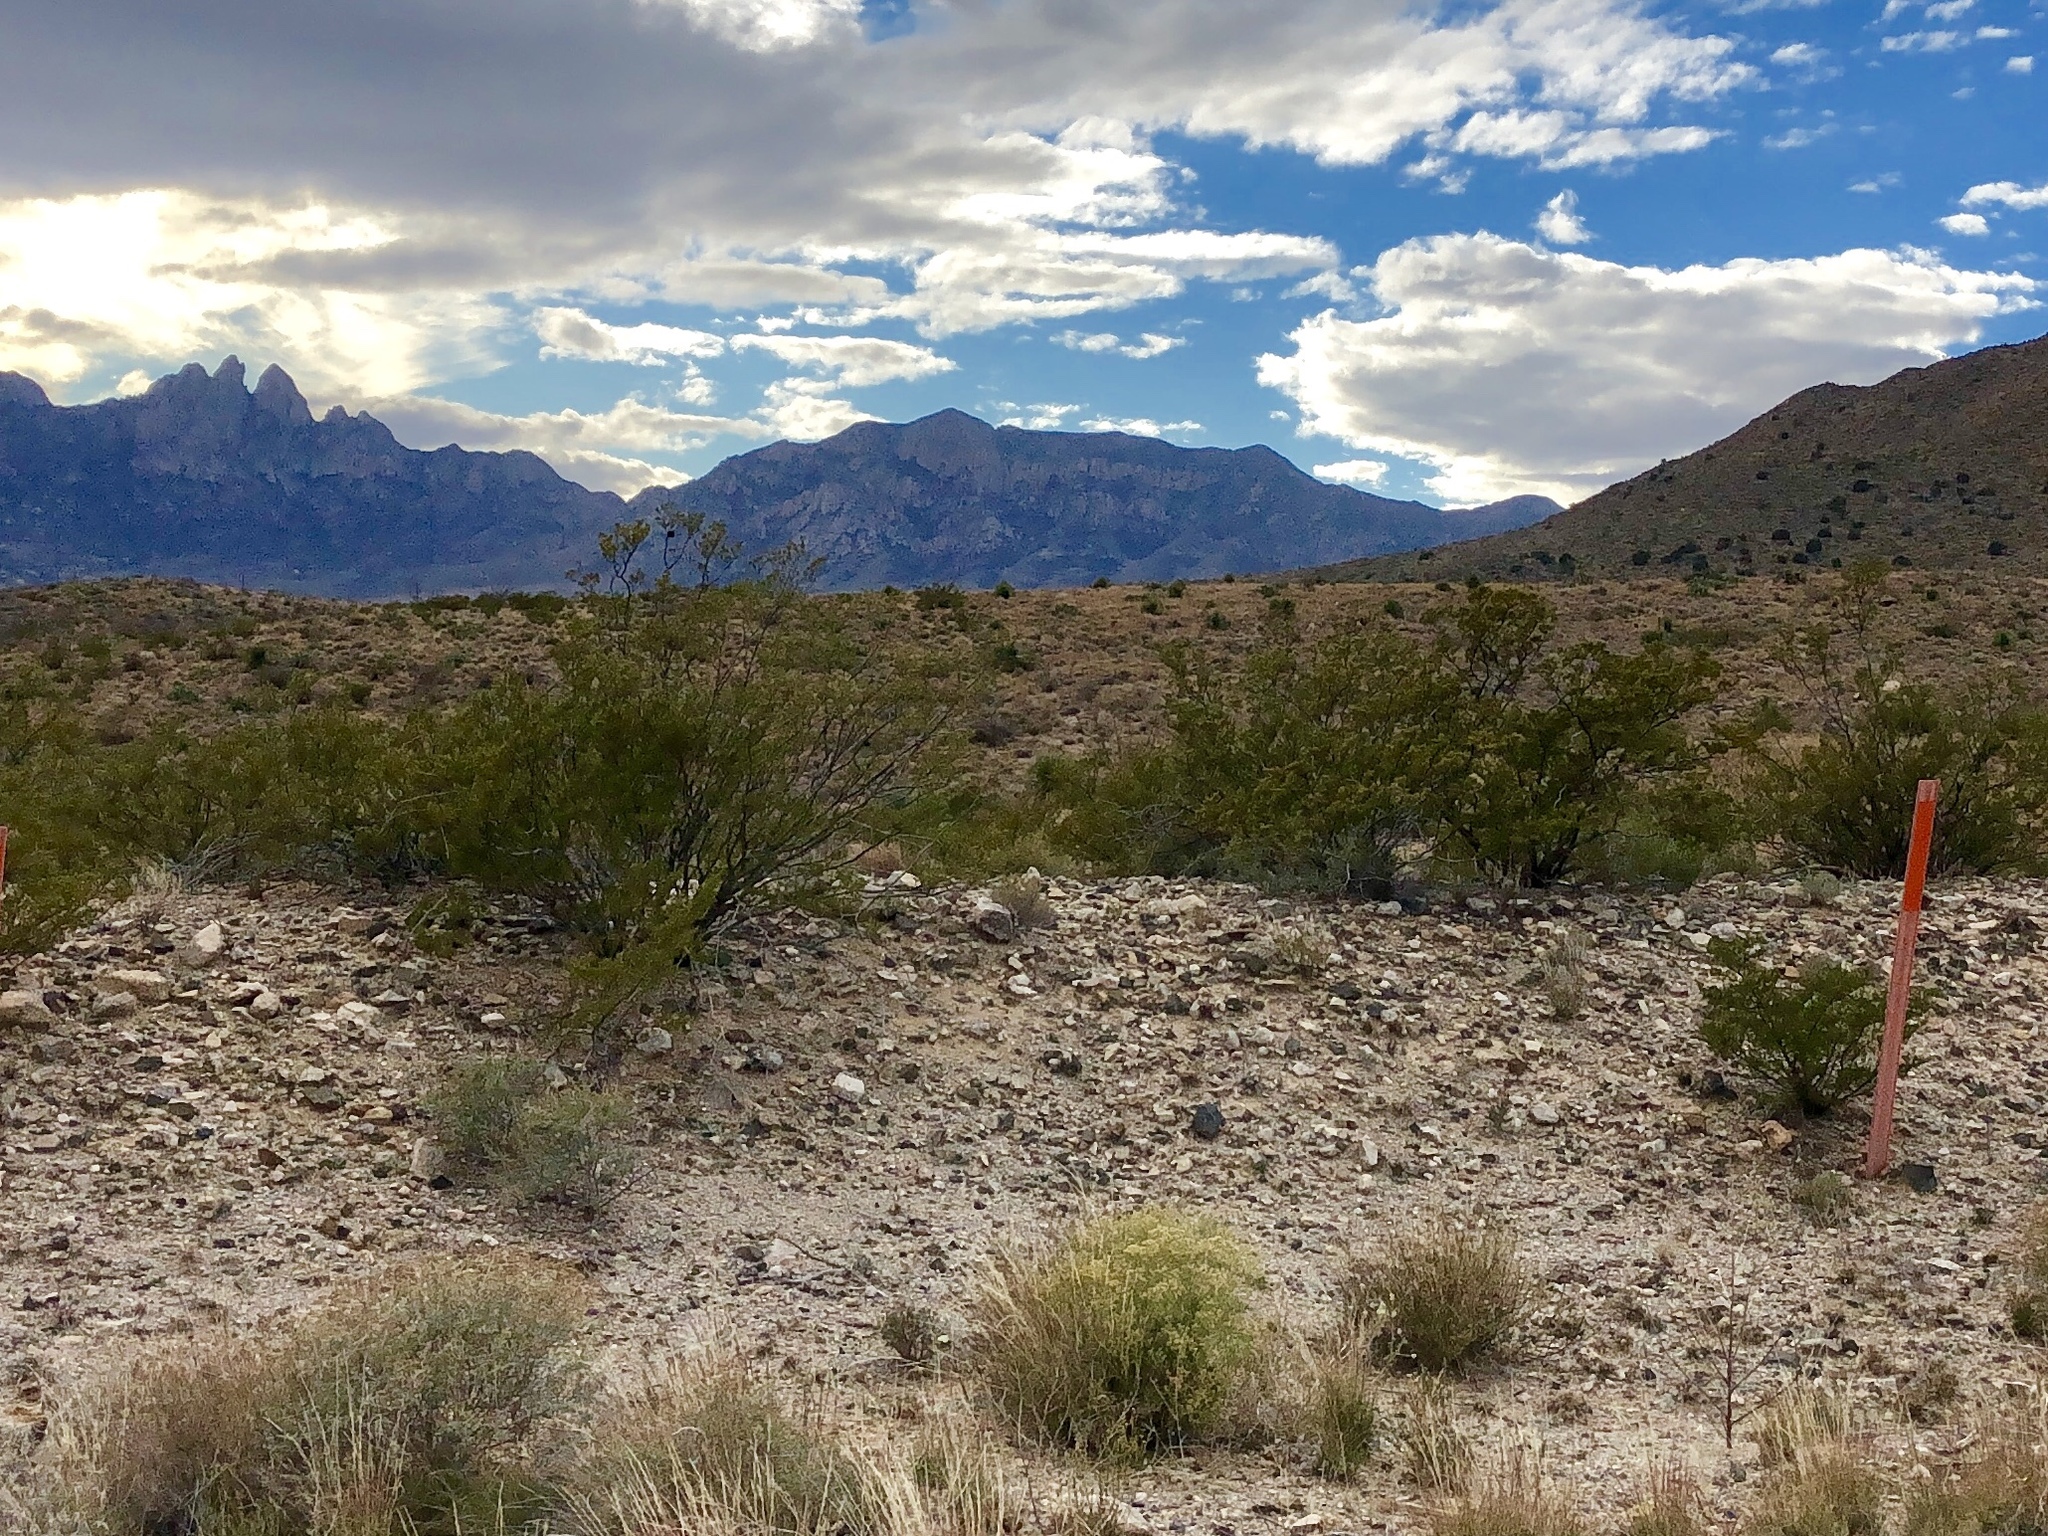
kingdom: Plantae
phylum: Tracheophyta
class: Magnoliopsida
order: Zygophyllales
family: Zygophyllaceae
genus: Larrea
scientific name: Larrea tridentata
